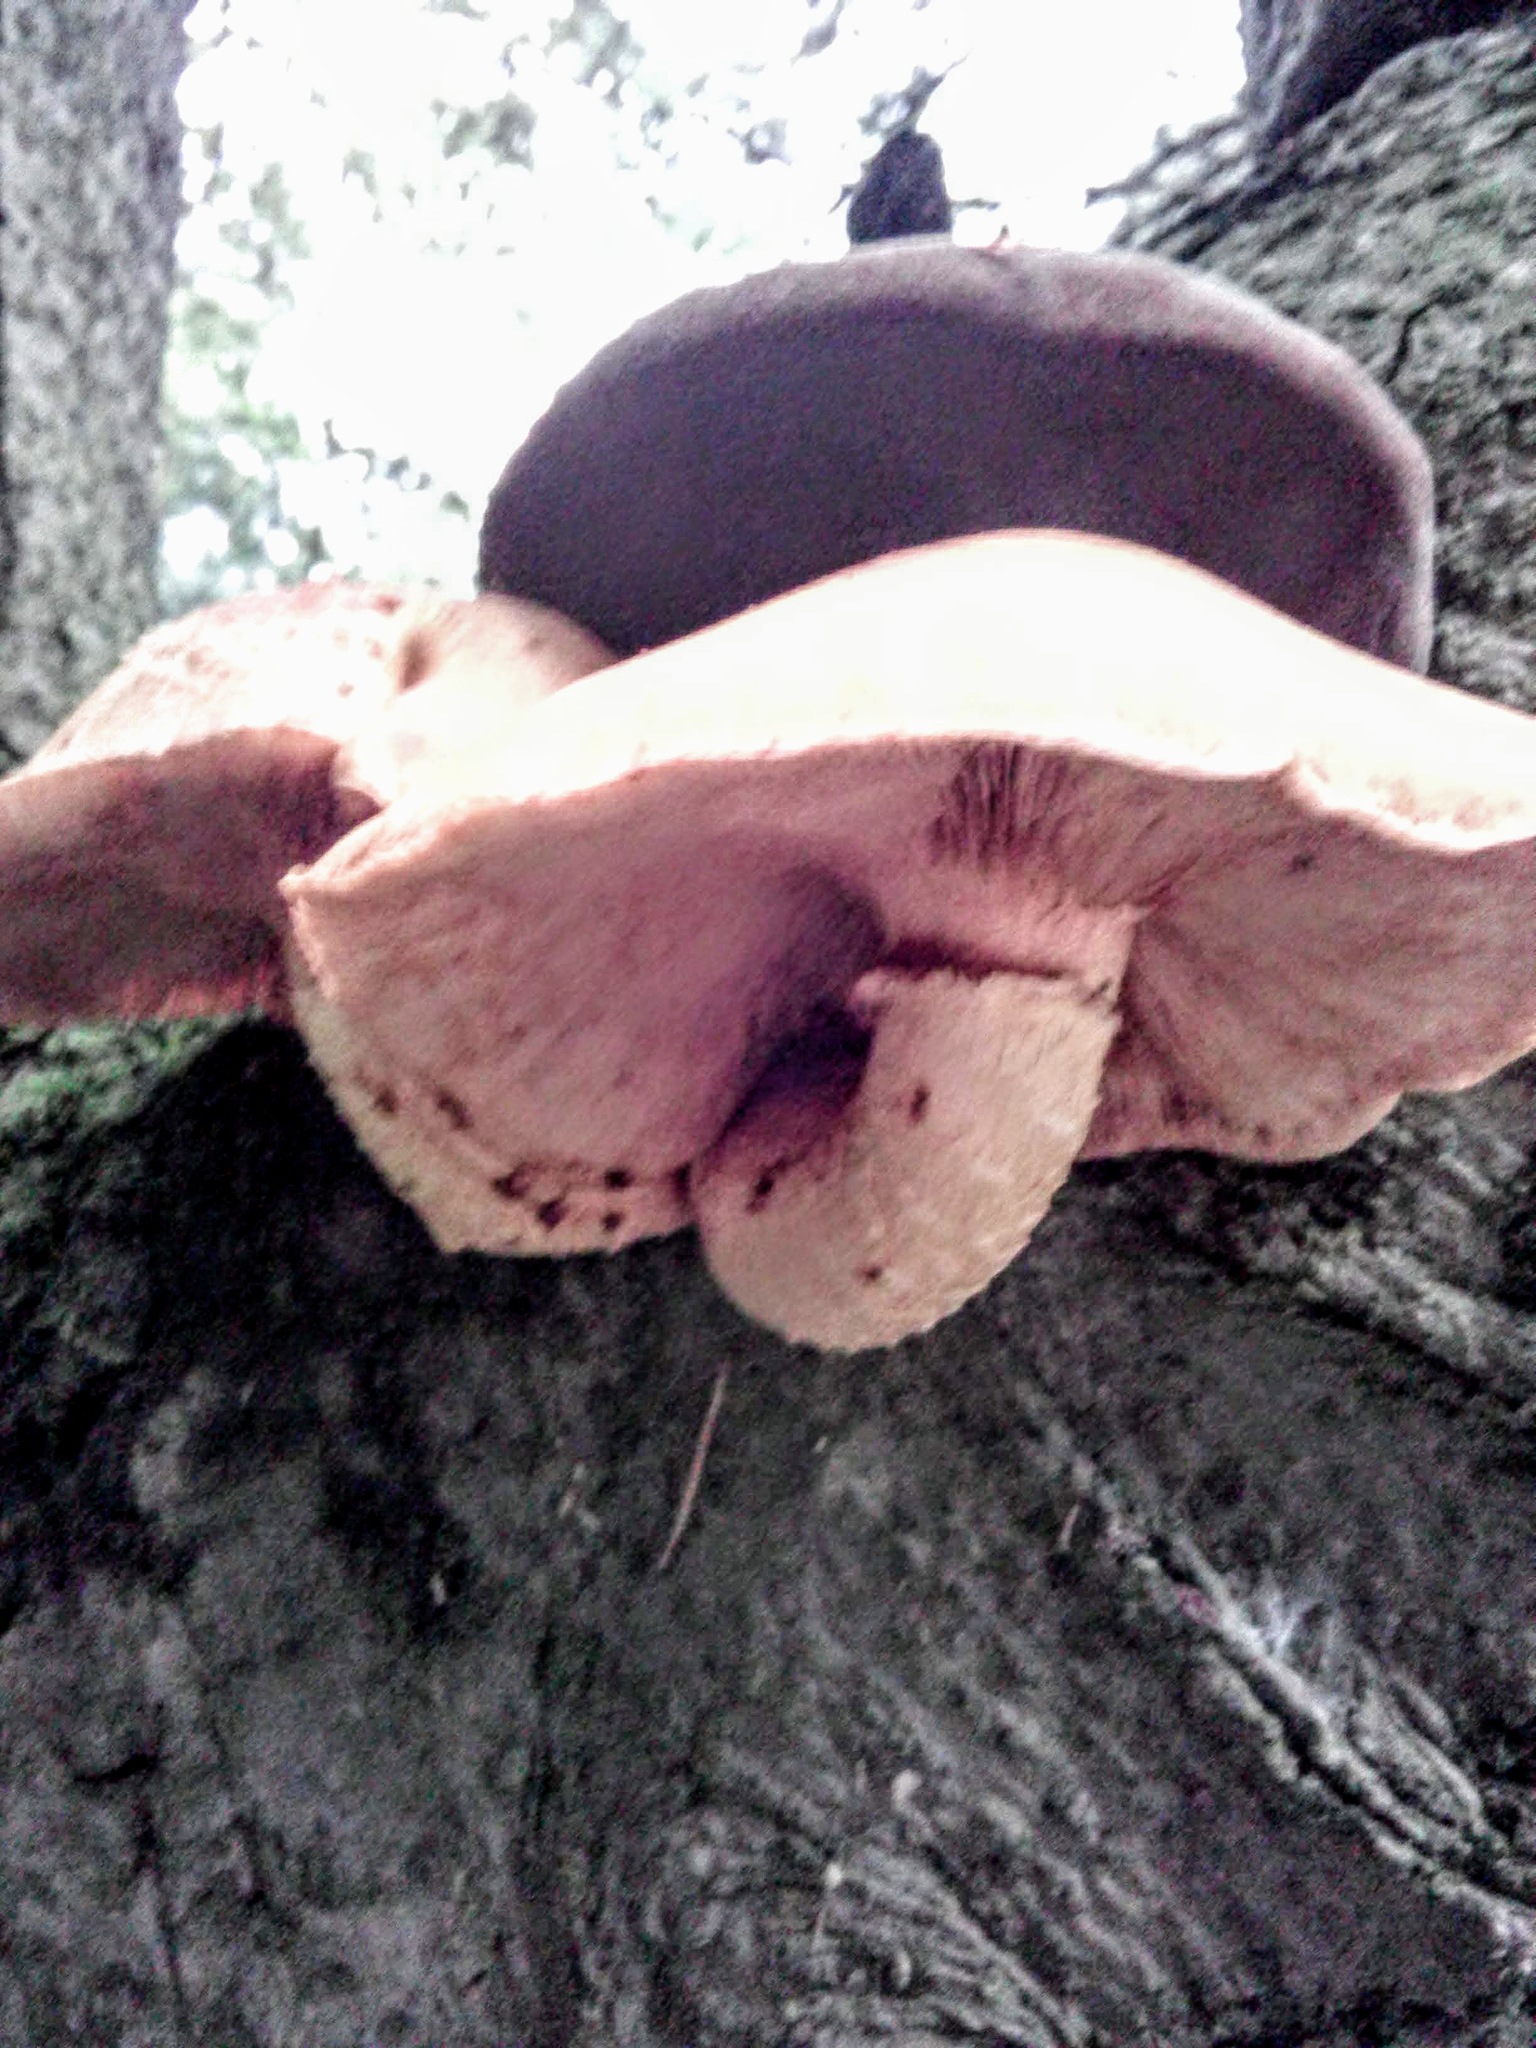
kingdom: Fungi
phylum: Basidiomycota
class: Agaricomycetes
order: Agaricales
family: Hymenogastraceae
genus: Gymnopilus
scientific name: Gymnopilus junonius
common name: Spectacular rustgill
